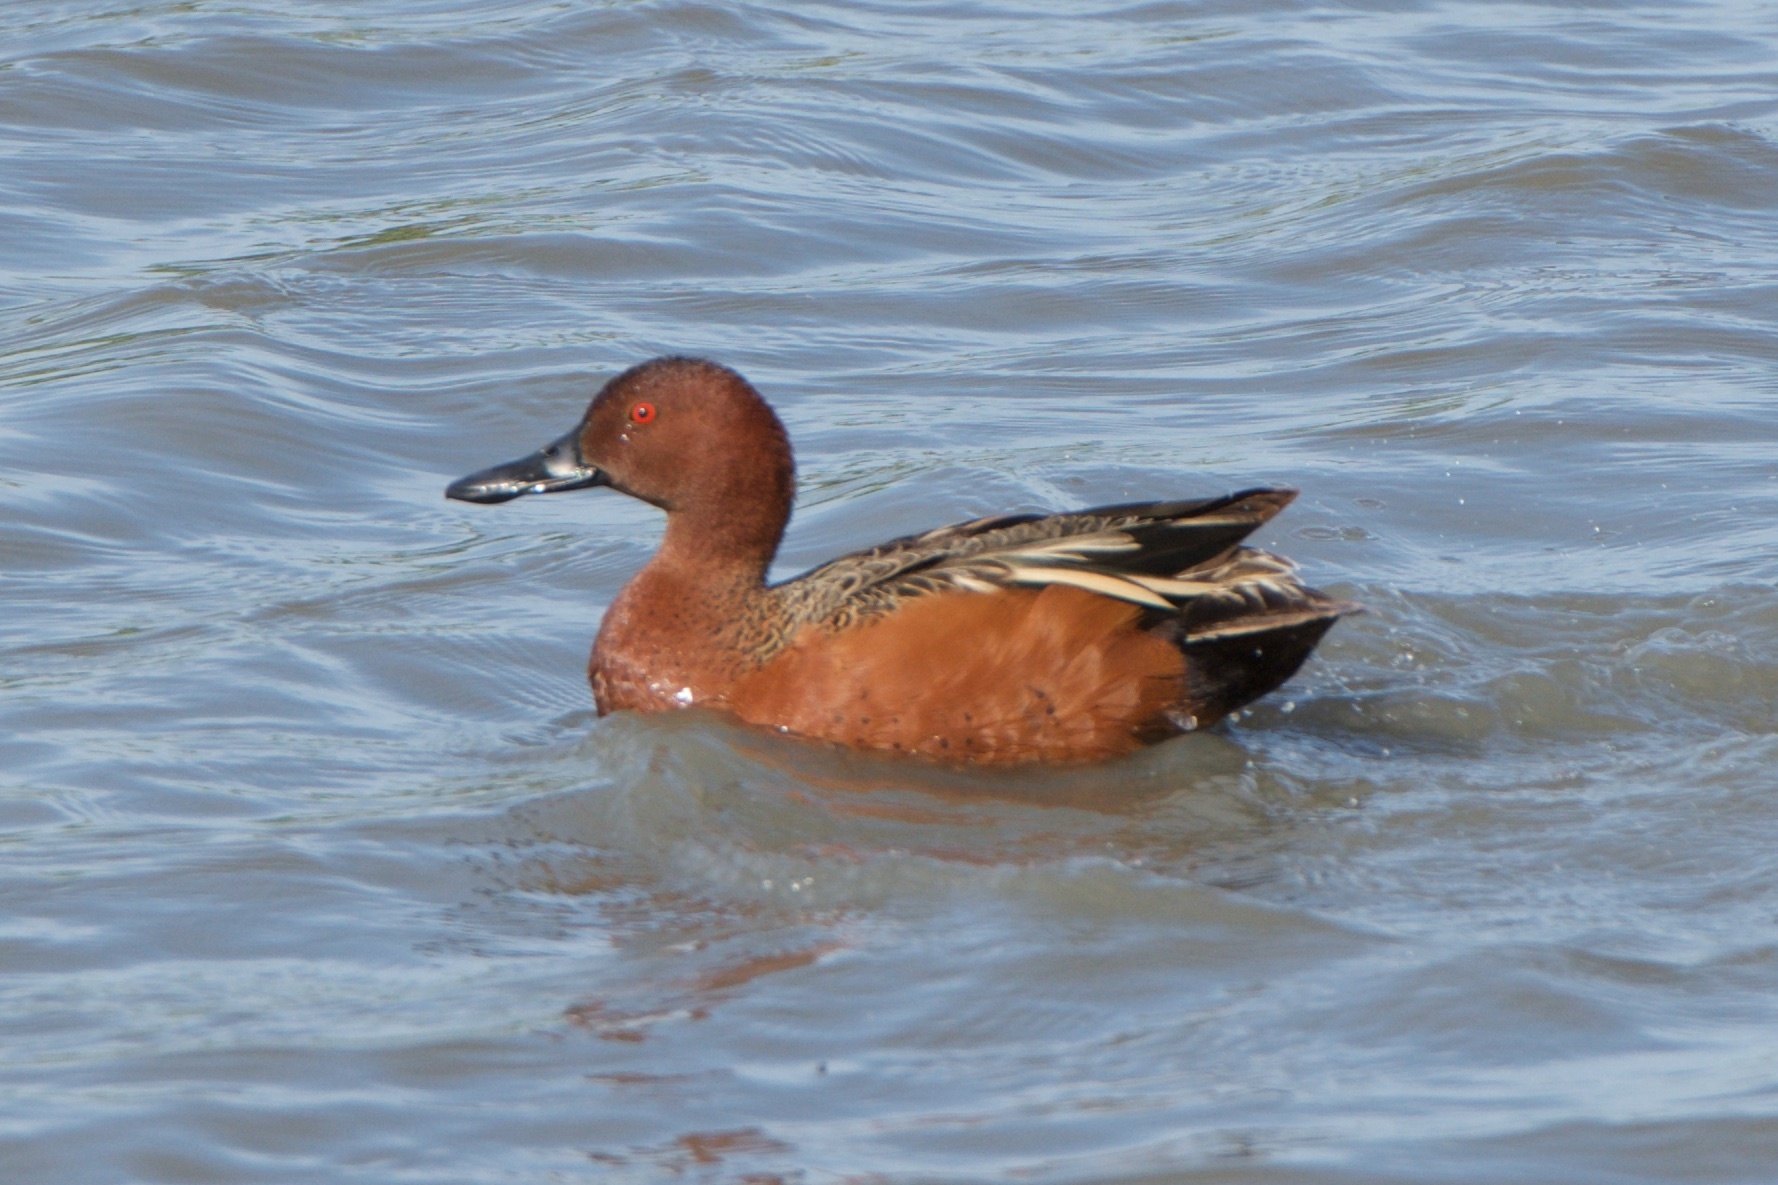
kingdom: Animalia
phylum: Chordata
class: Aves
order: Anseriformes
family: Anatidae
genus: Spatula
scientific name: Spatula cyanoptera
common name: Cinnamon teal
